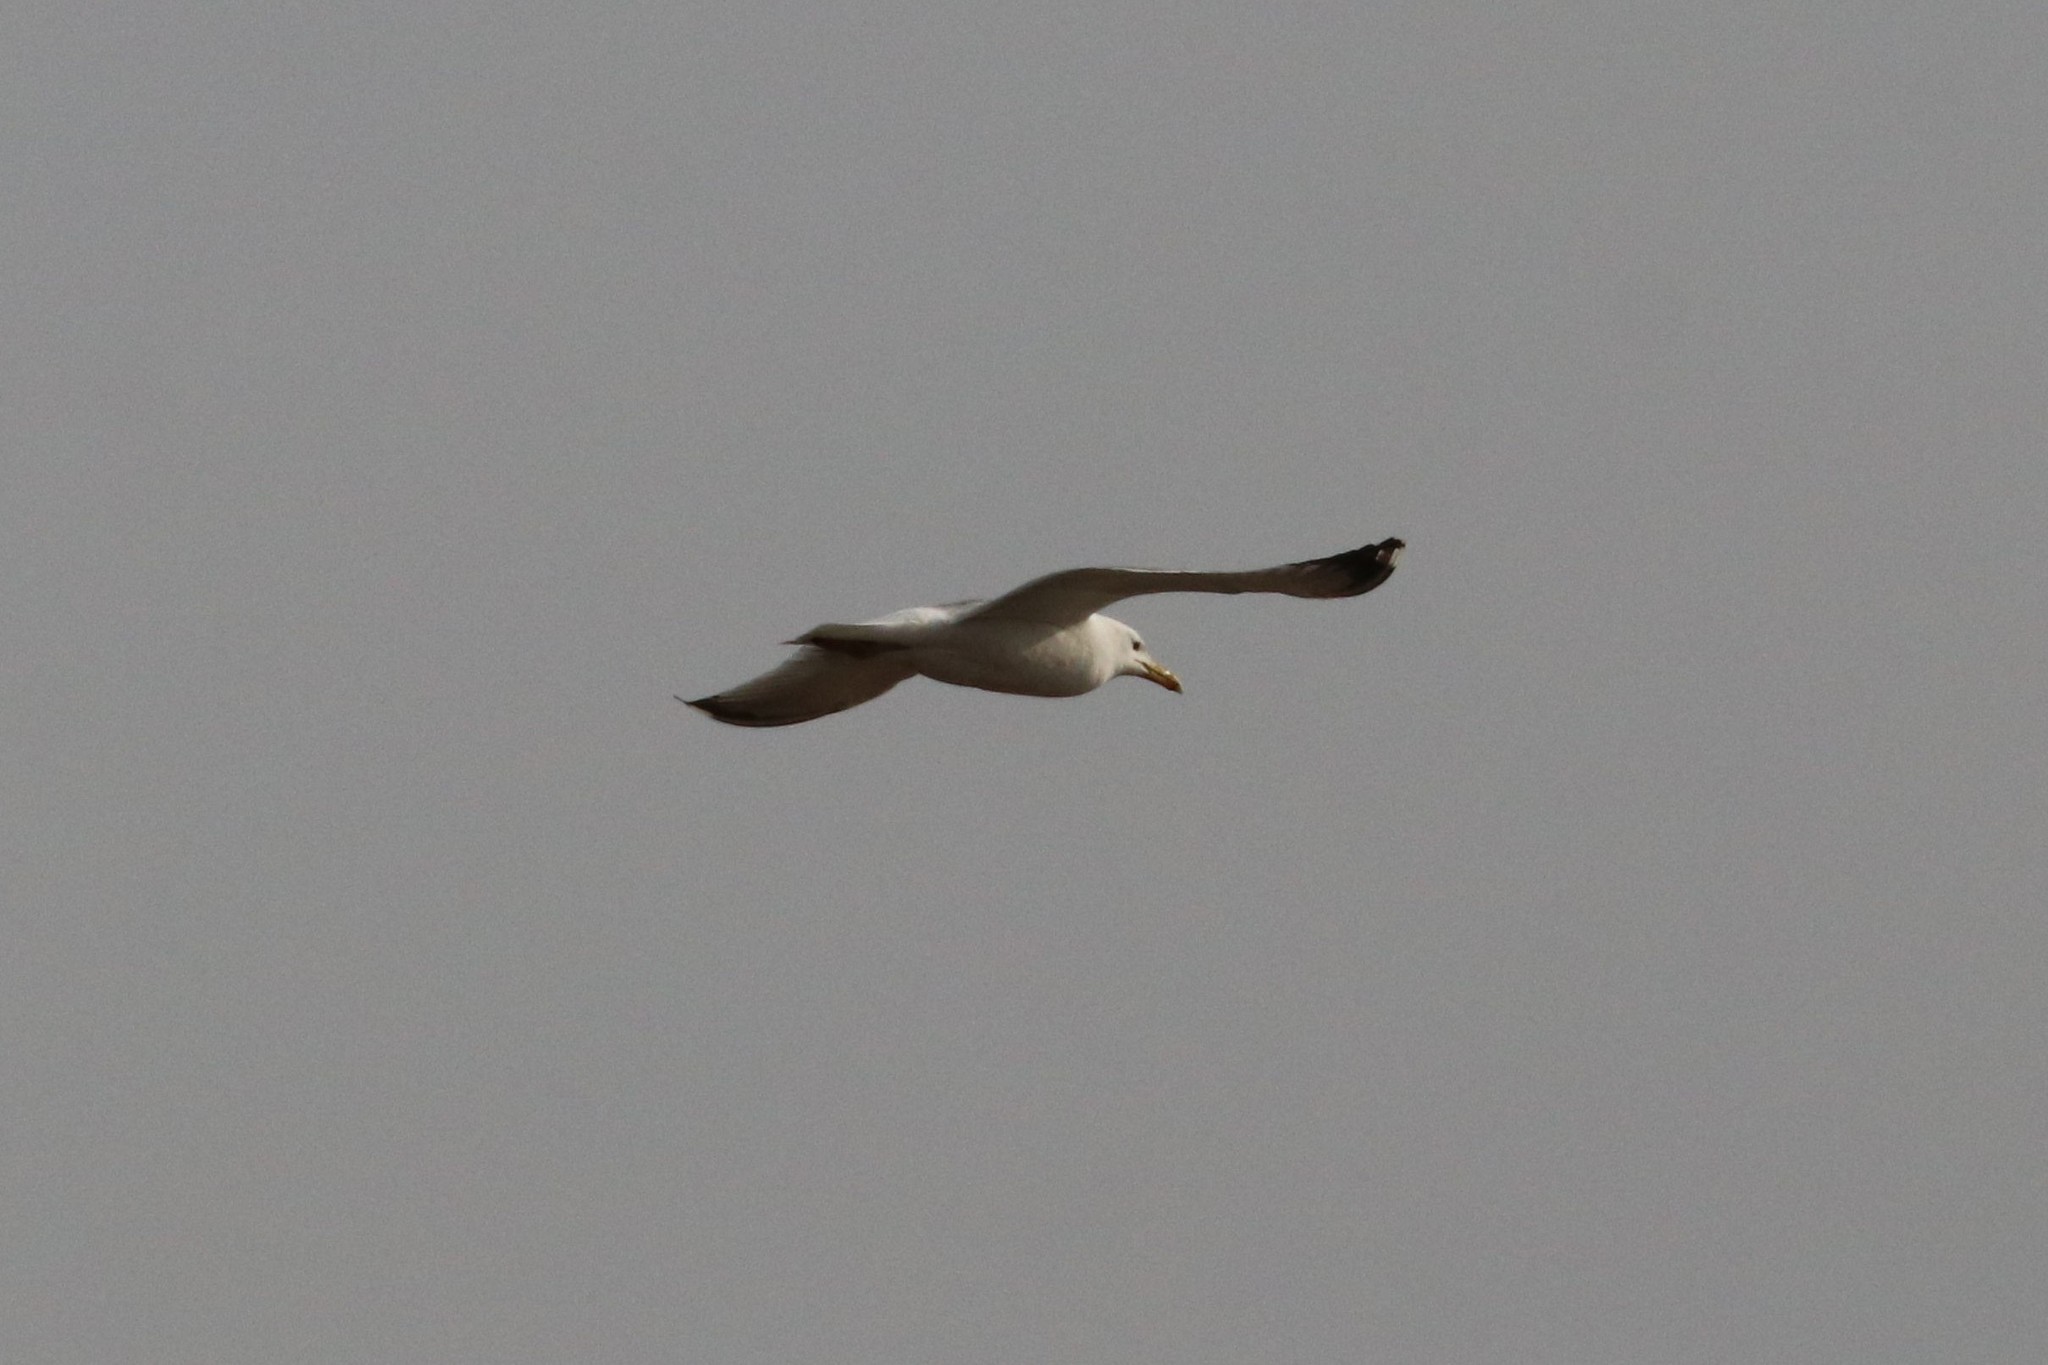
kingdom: Animalia
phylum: Chordata
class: Aves
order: Charadriiformes
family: Laridae
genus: Larus
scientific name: Larus cachinnans
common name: Caspian gull
